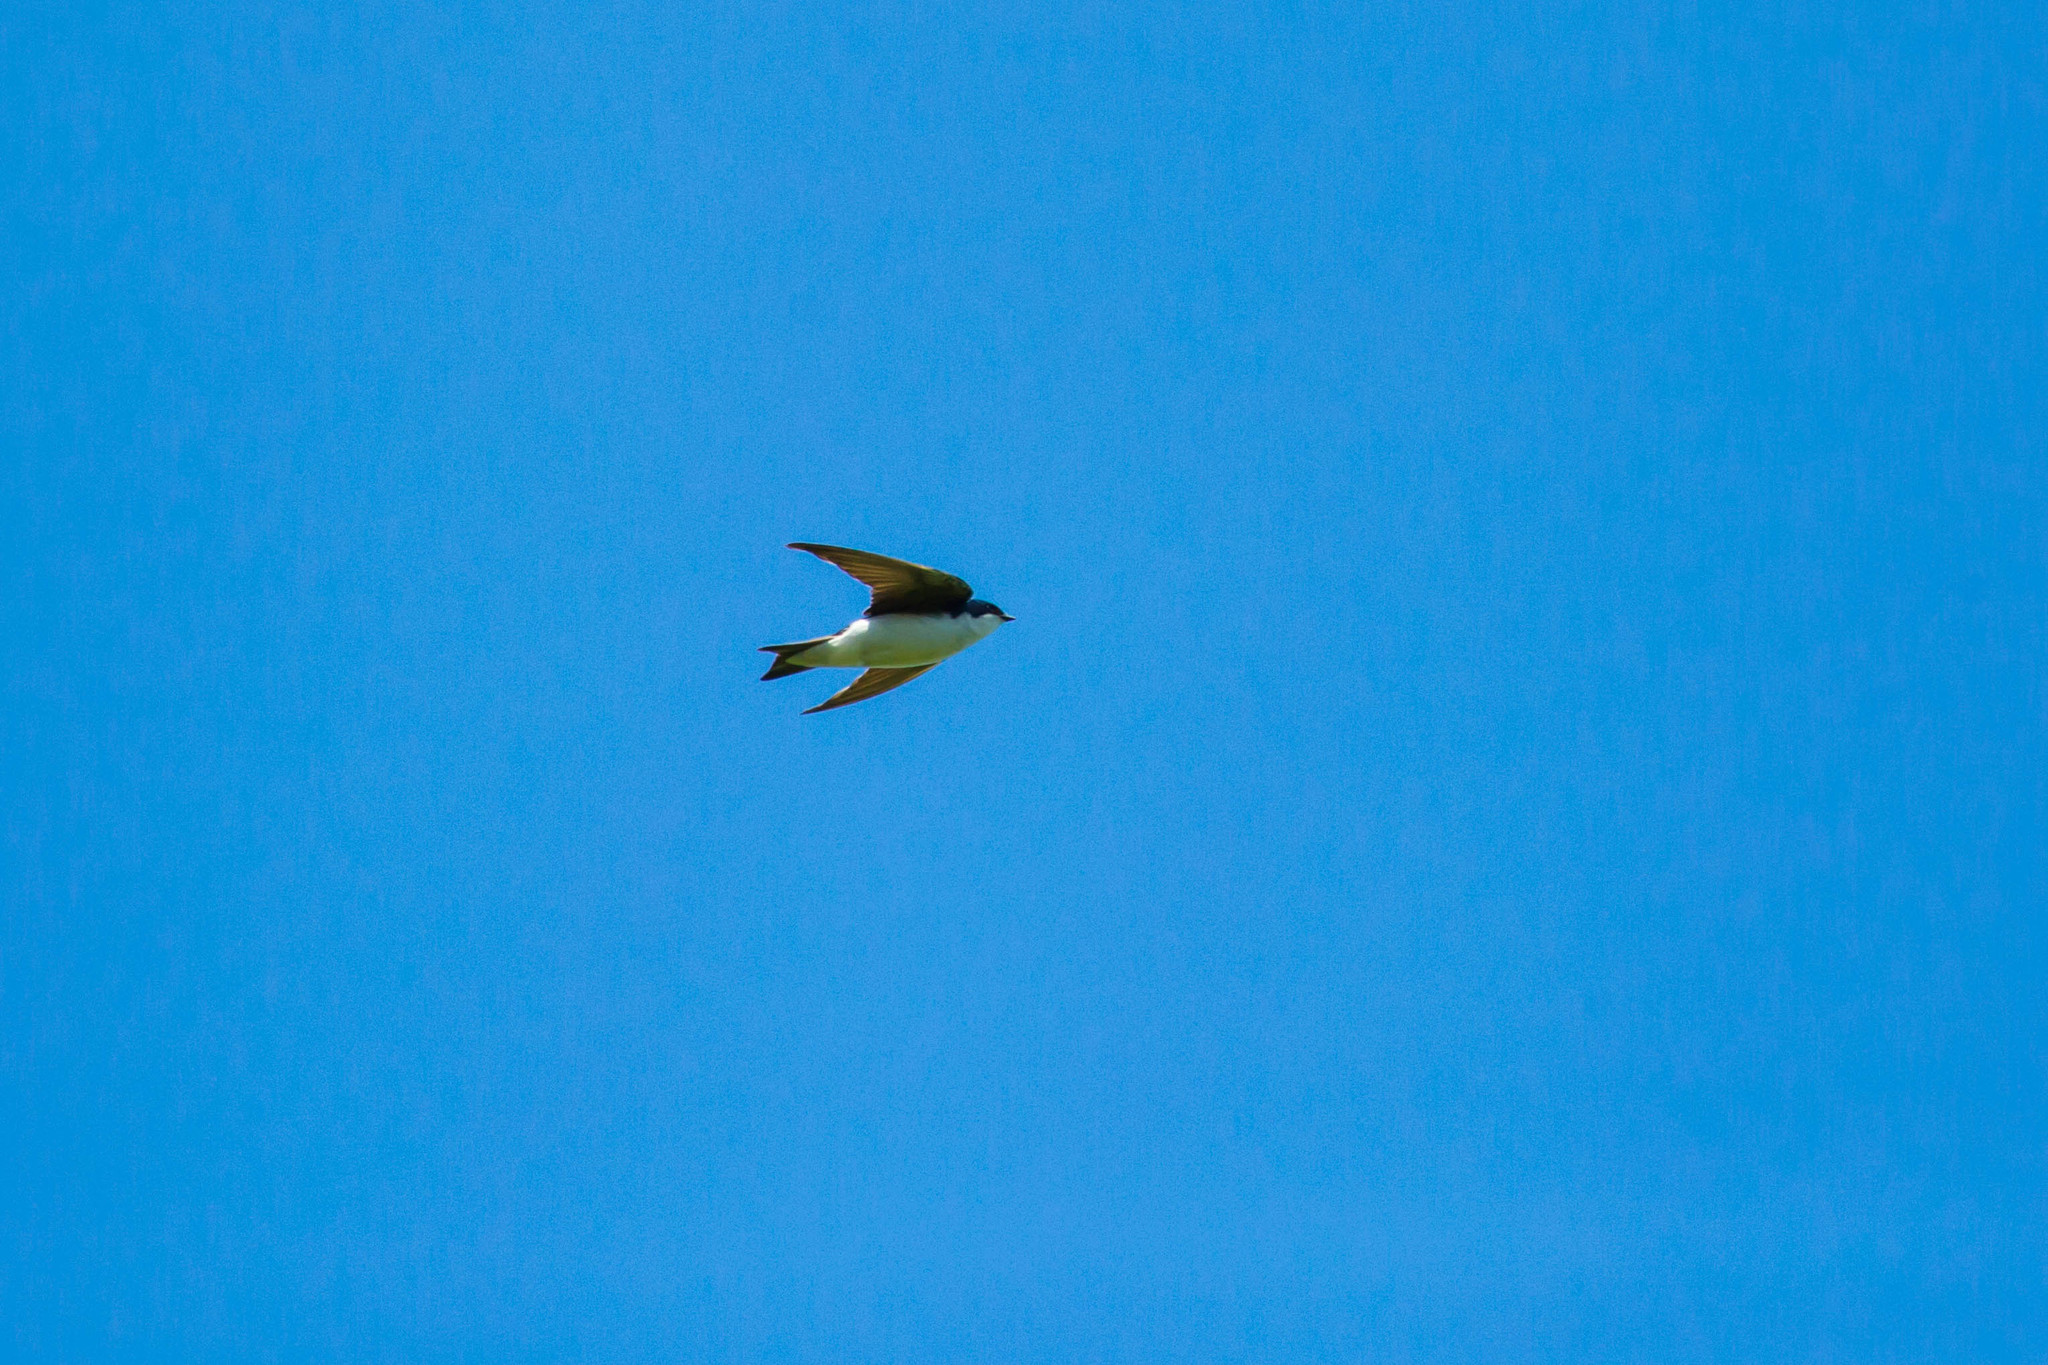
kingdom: Animalia
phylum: Chordata
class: Aves
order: Passeriformes
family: Hirundinidae
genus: Tachycineta
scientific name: Tachycineta bicolor
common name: Tree swallow
